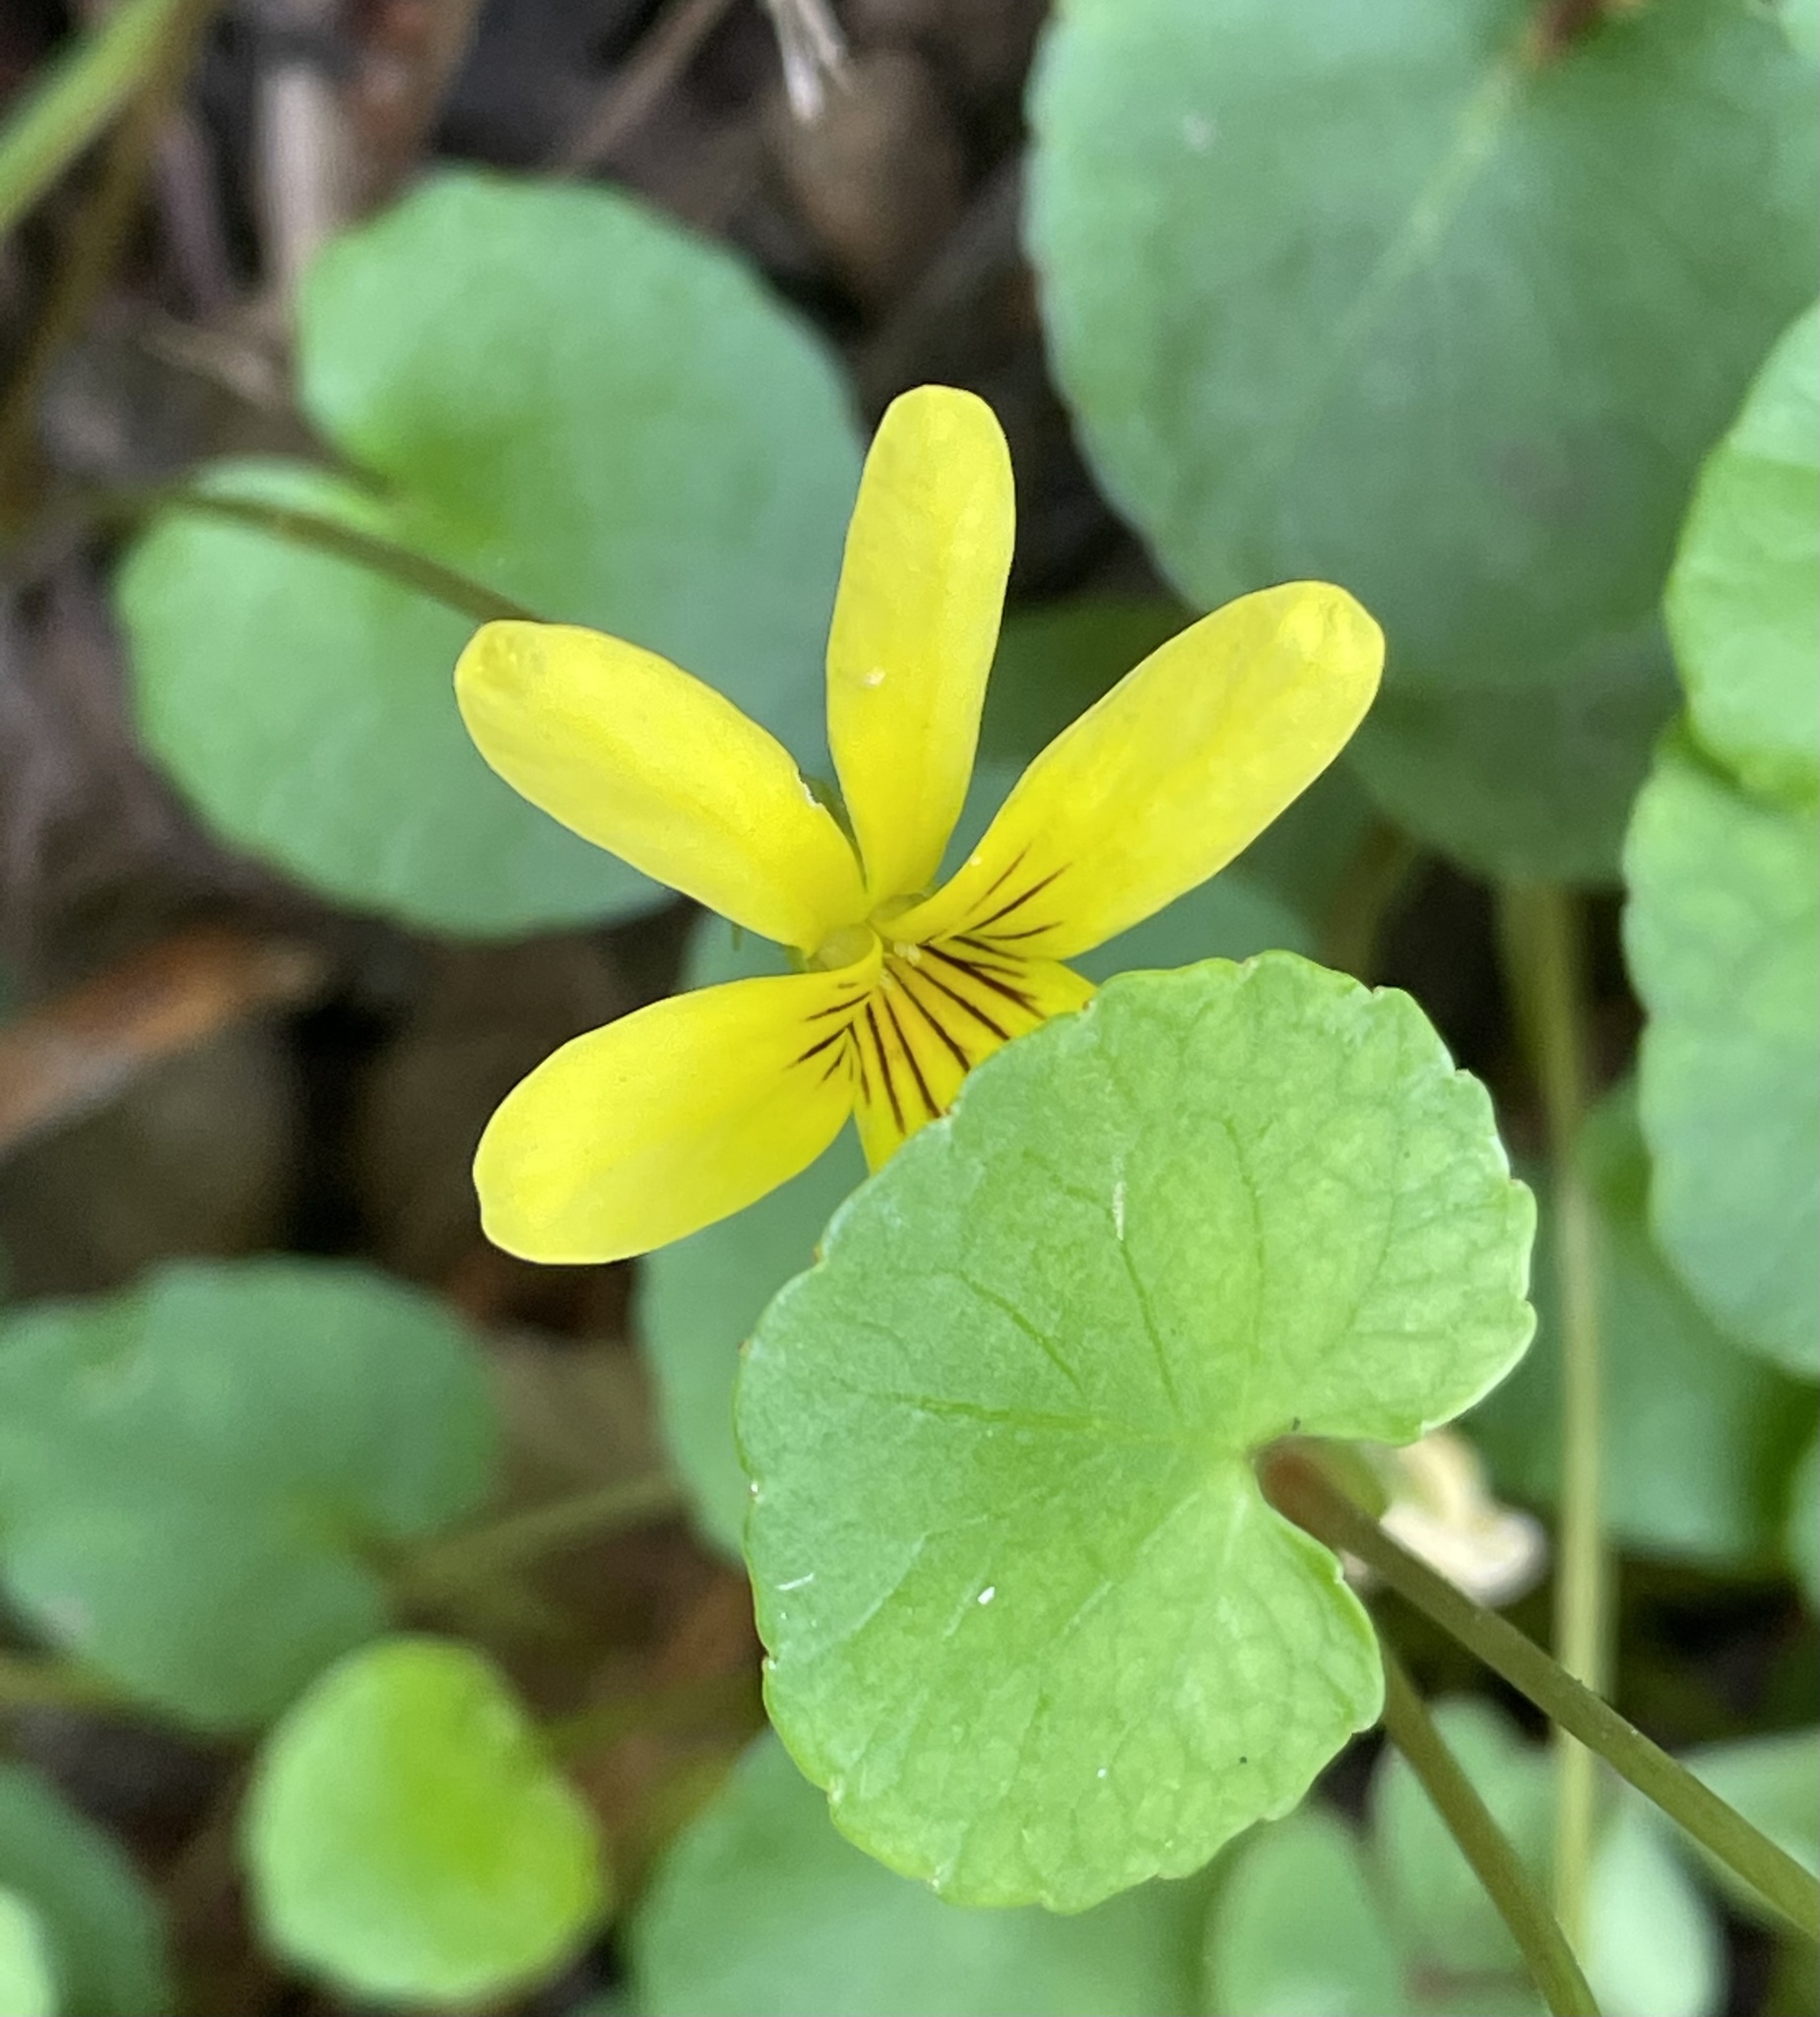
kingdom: Plantae
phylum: Tracheophyta
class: Magnoliopsida
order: Malpighiales
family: Violaceae
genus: Viola
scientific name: Viola sempervirens
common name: Evergreen violet
